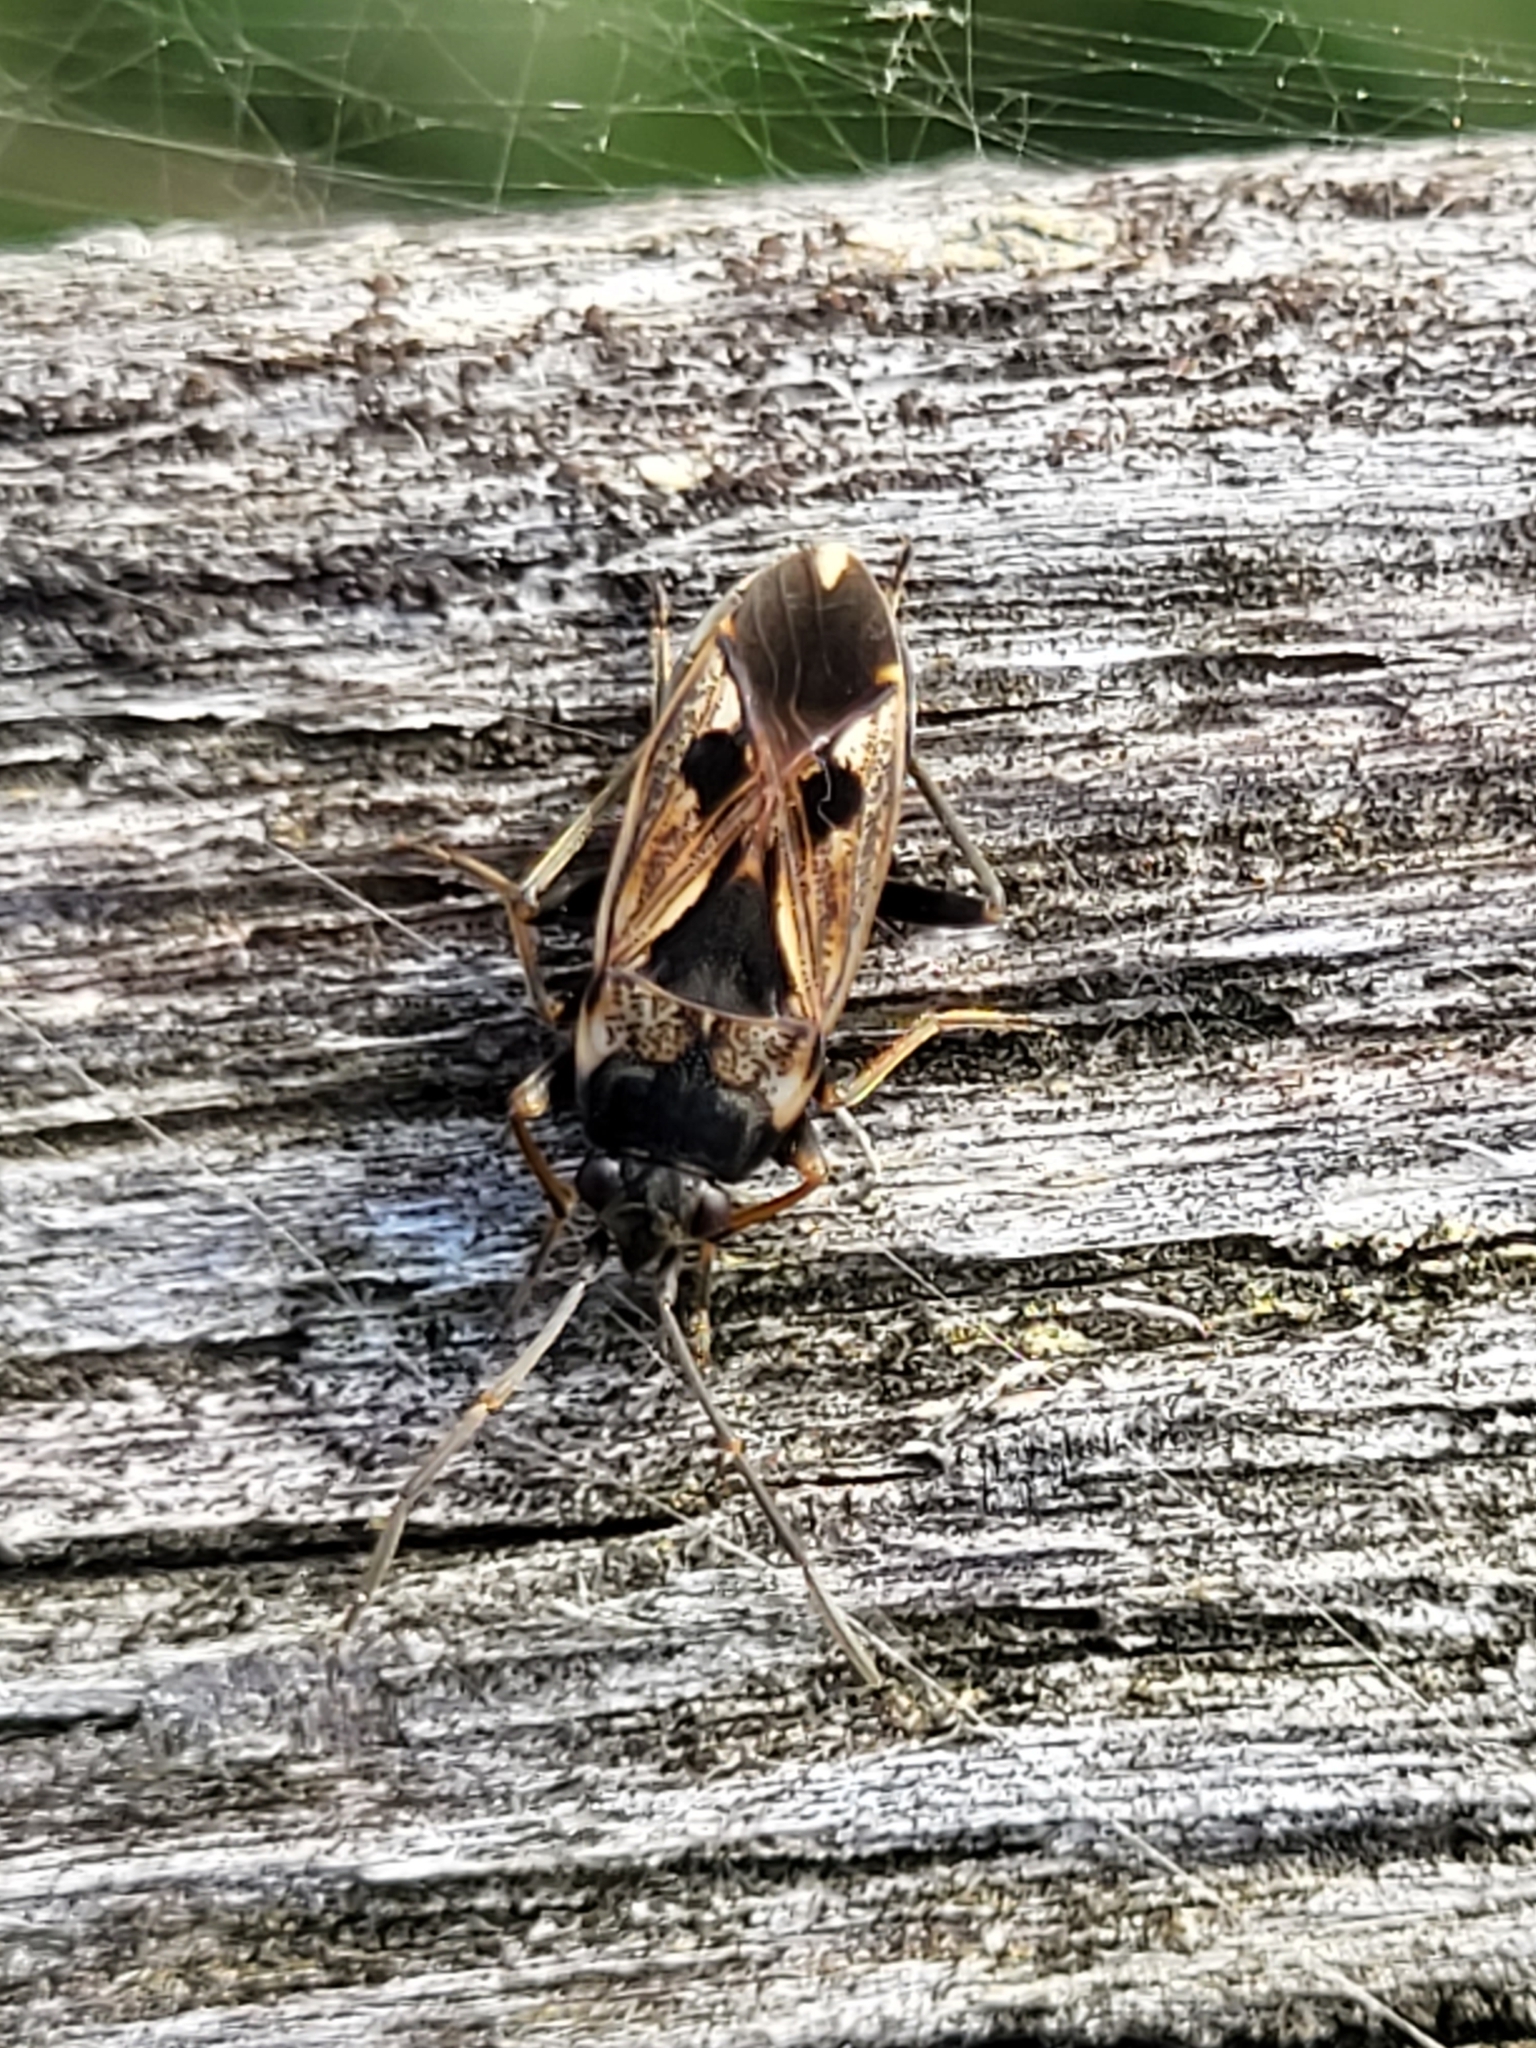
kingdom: Animalia
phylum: Arthropoda
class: Insecta
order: Hemiptera
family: Rhyparochromidae
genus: Rhyparochromus
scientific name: Rhyparochromus vulgaris
